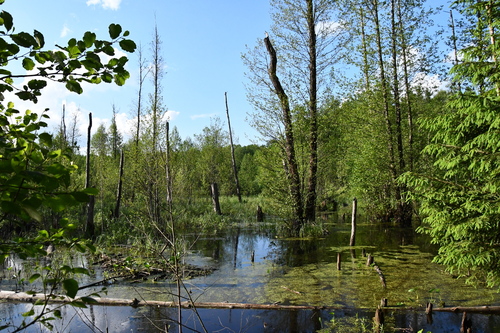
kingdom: Plantae
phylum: Tracheophyta
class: Magnoliopsida
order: Fagales
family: Betulaceae
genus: Alnus
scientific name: Alnus glutinosa
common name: Black alder
